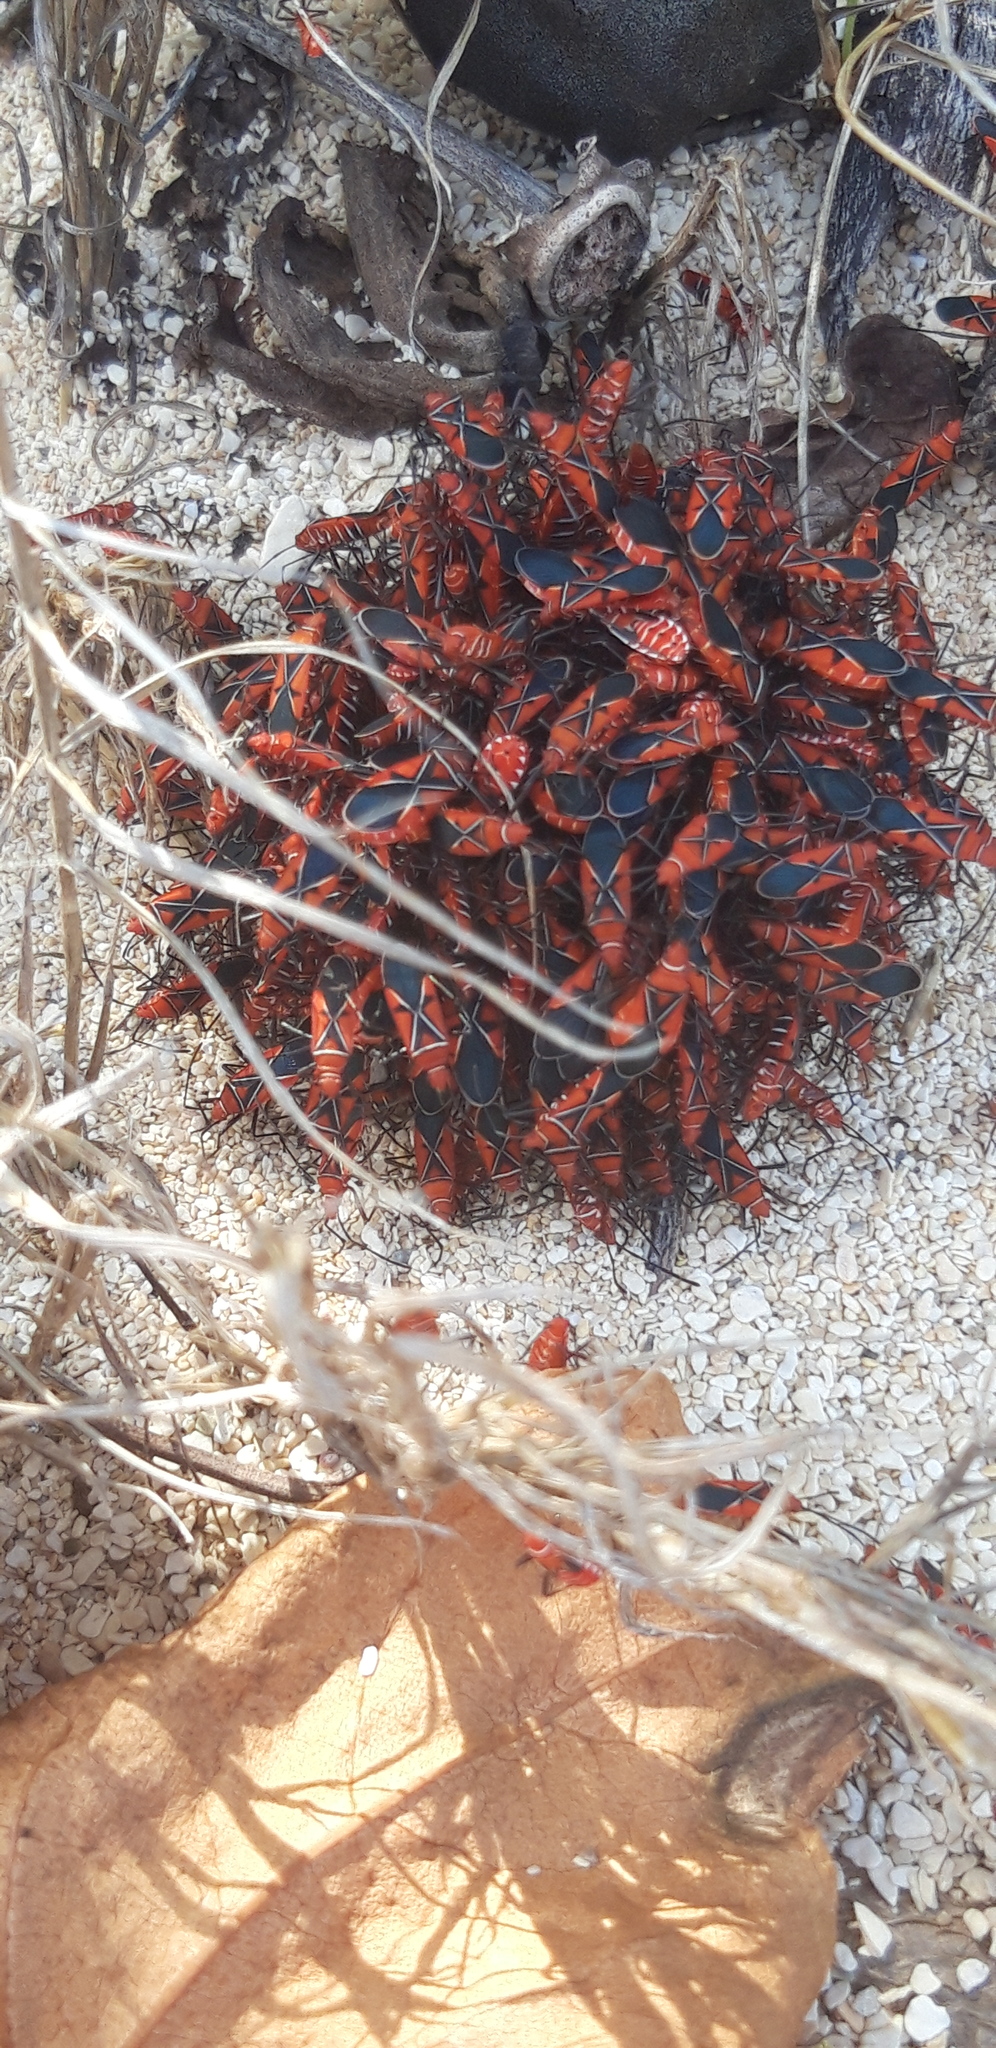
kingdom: Animalia
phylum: Arthropoda
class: Insecta
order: Hemiptera
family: Pyrrhocoridae
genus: Dysdercus
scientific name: Dysdercus andreae
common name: St. andrew's cotton stainer
